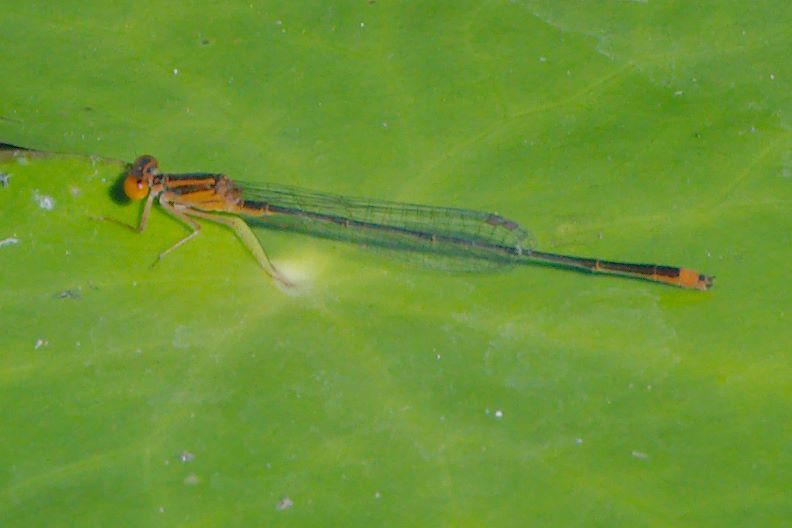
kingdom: Animalia
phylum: Arthropoda
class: Insecta
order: Odonata
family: Coenagrionidae
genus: Enallagma
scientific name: Enallagma pollutum
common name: Florida bluet
